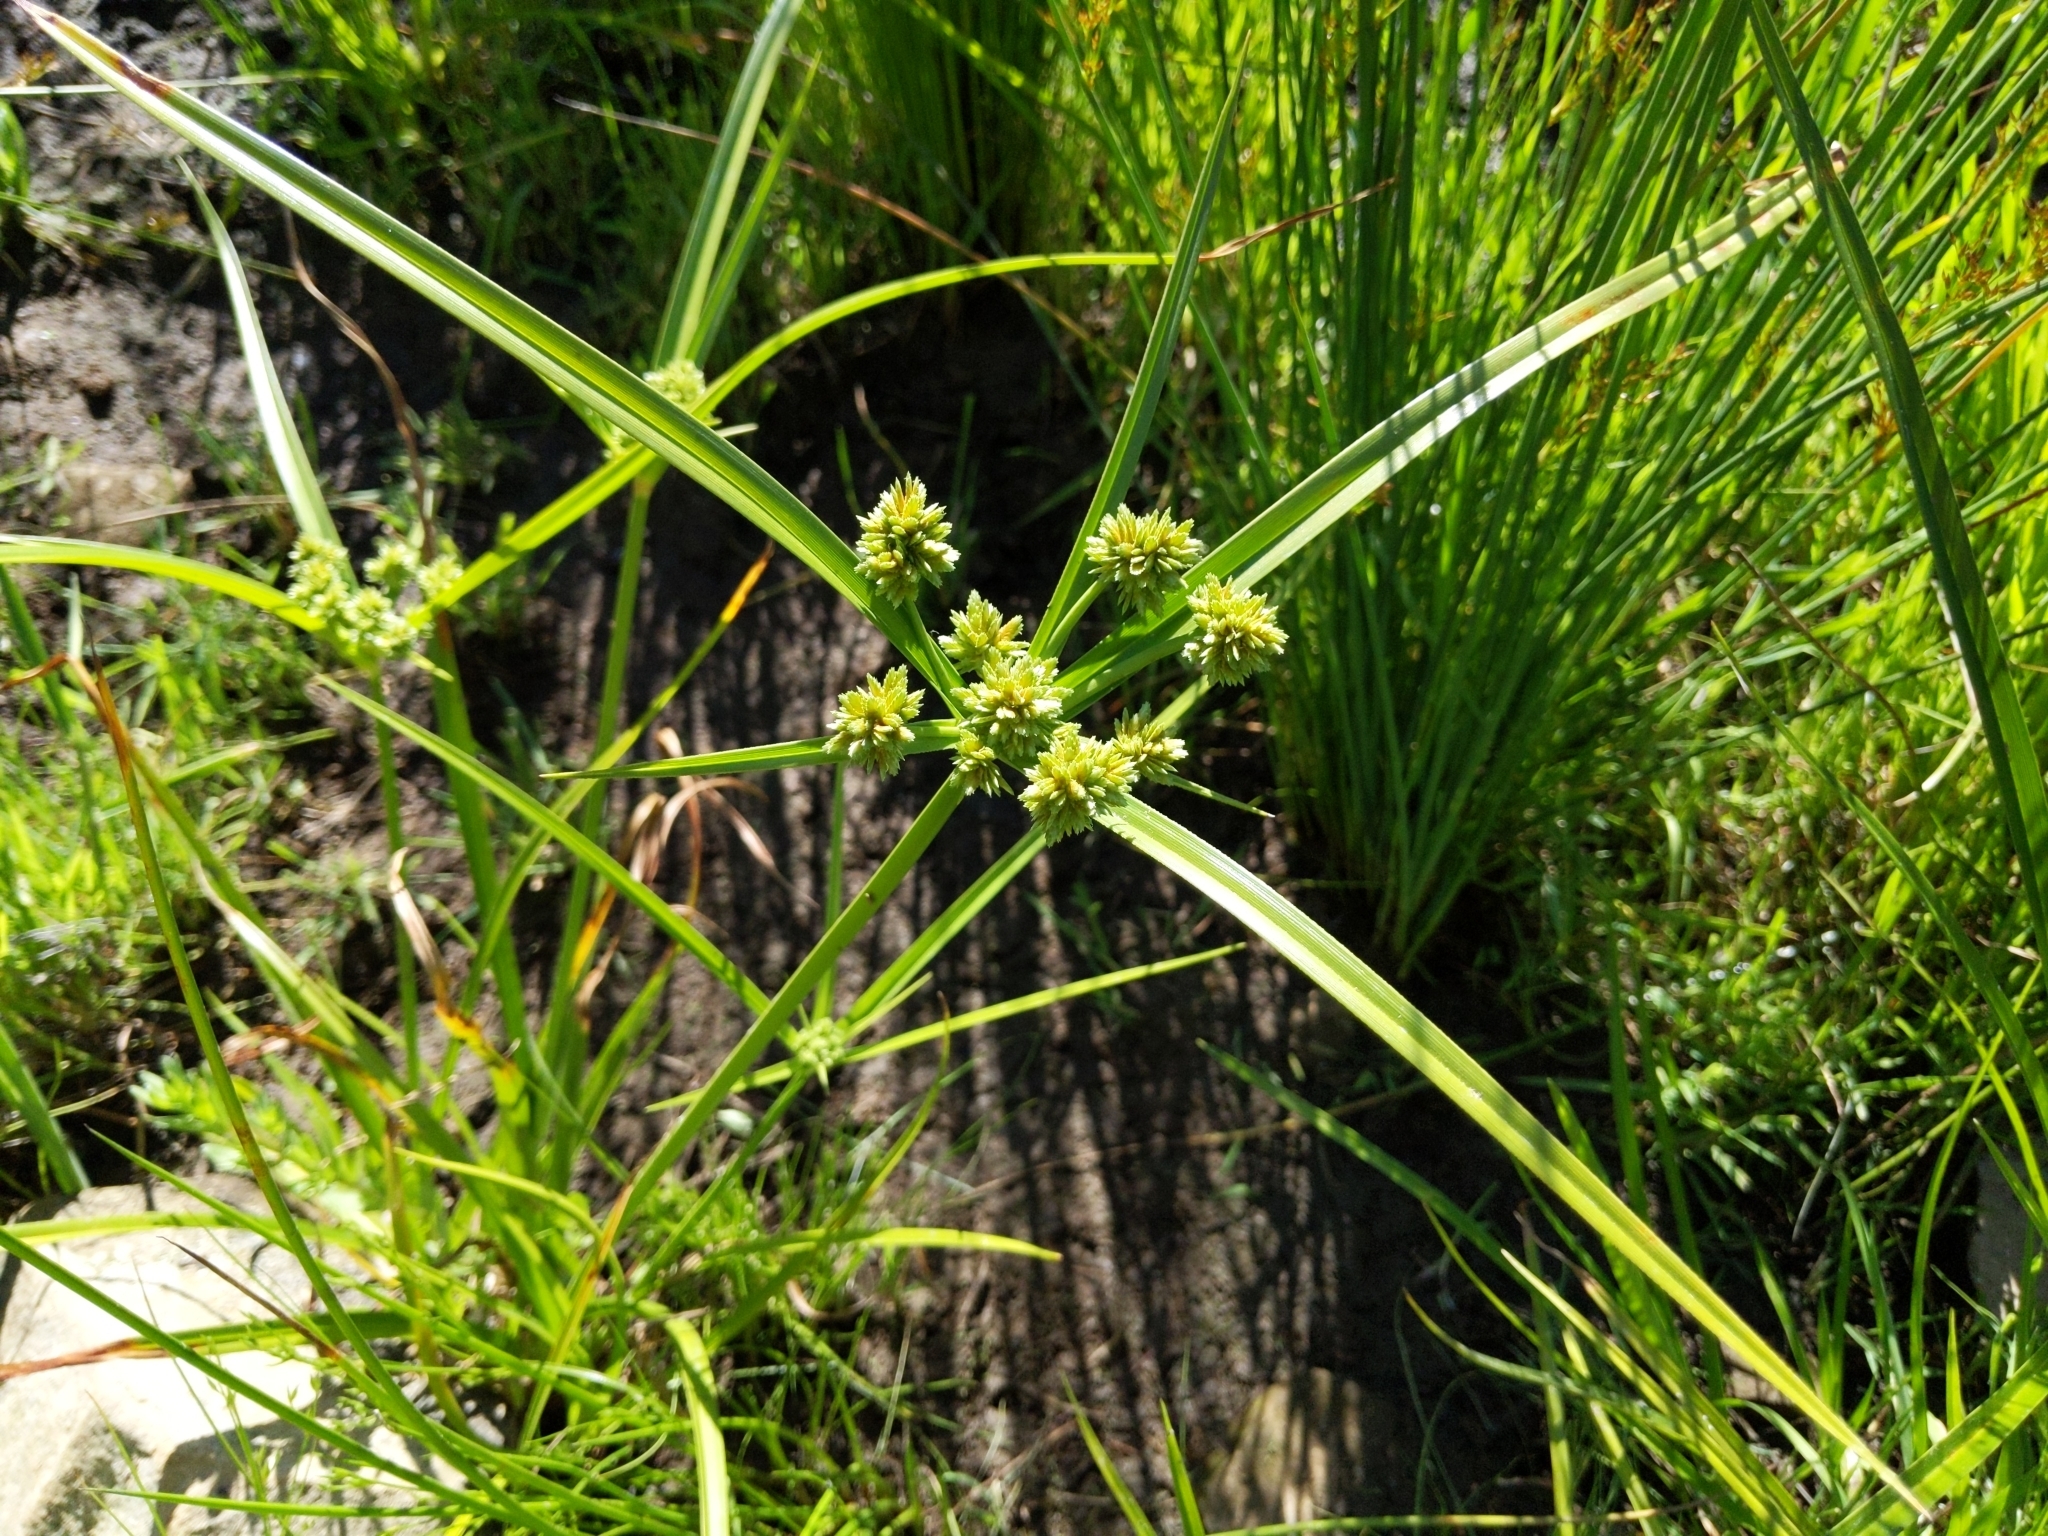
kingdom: Plantae
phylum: Tracheophyta
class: Liliopsida
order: Poales
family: Cyperaceae
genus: Cyperus
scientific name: Cyperus eragrostis
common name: Tall flatsedge
